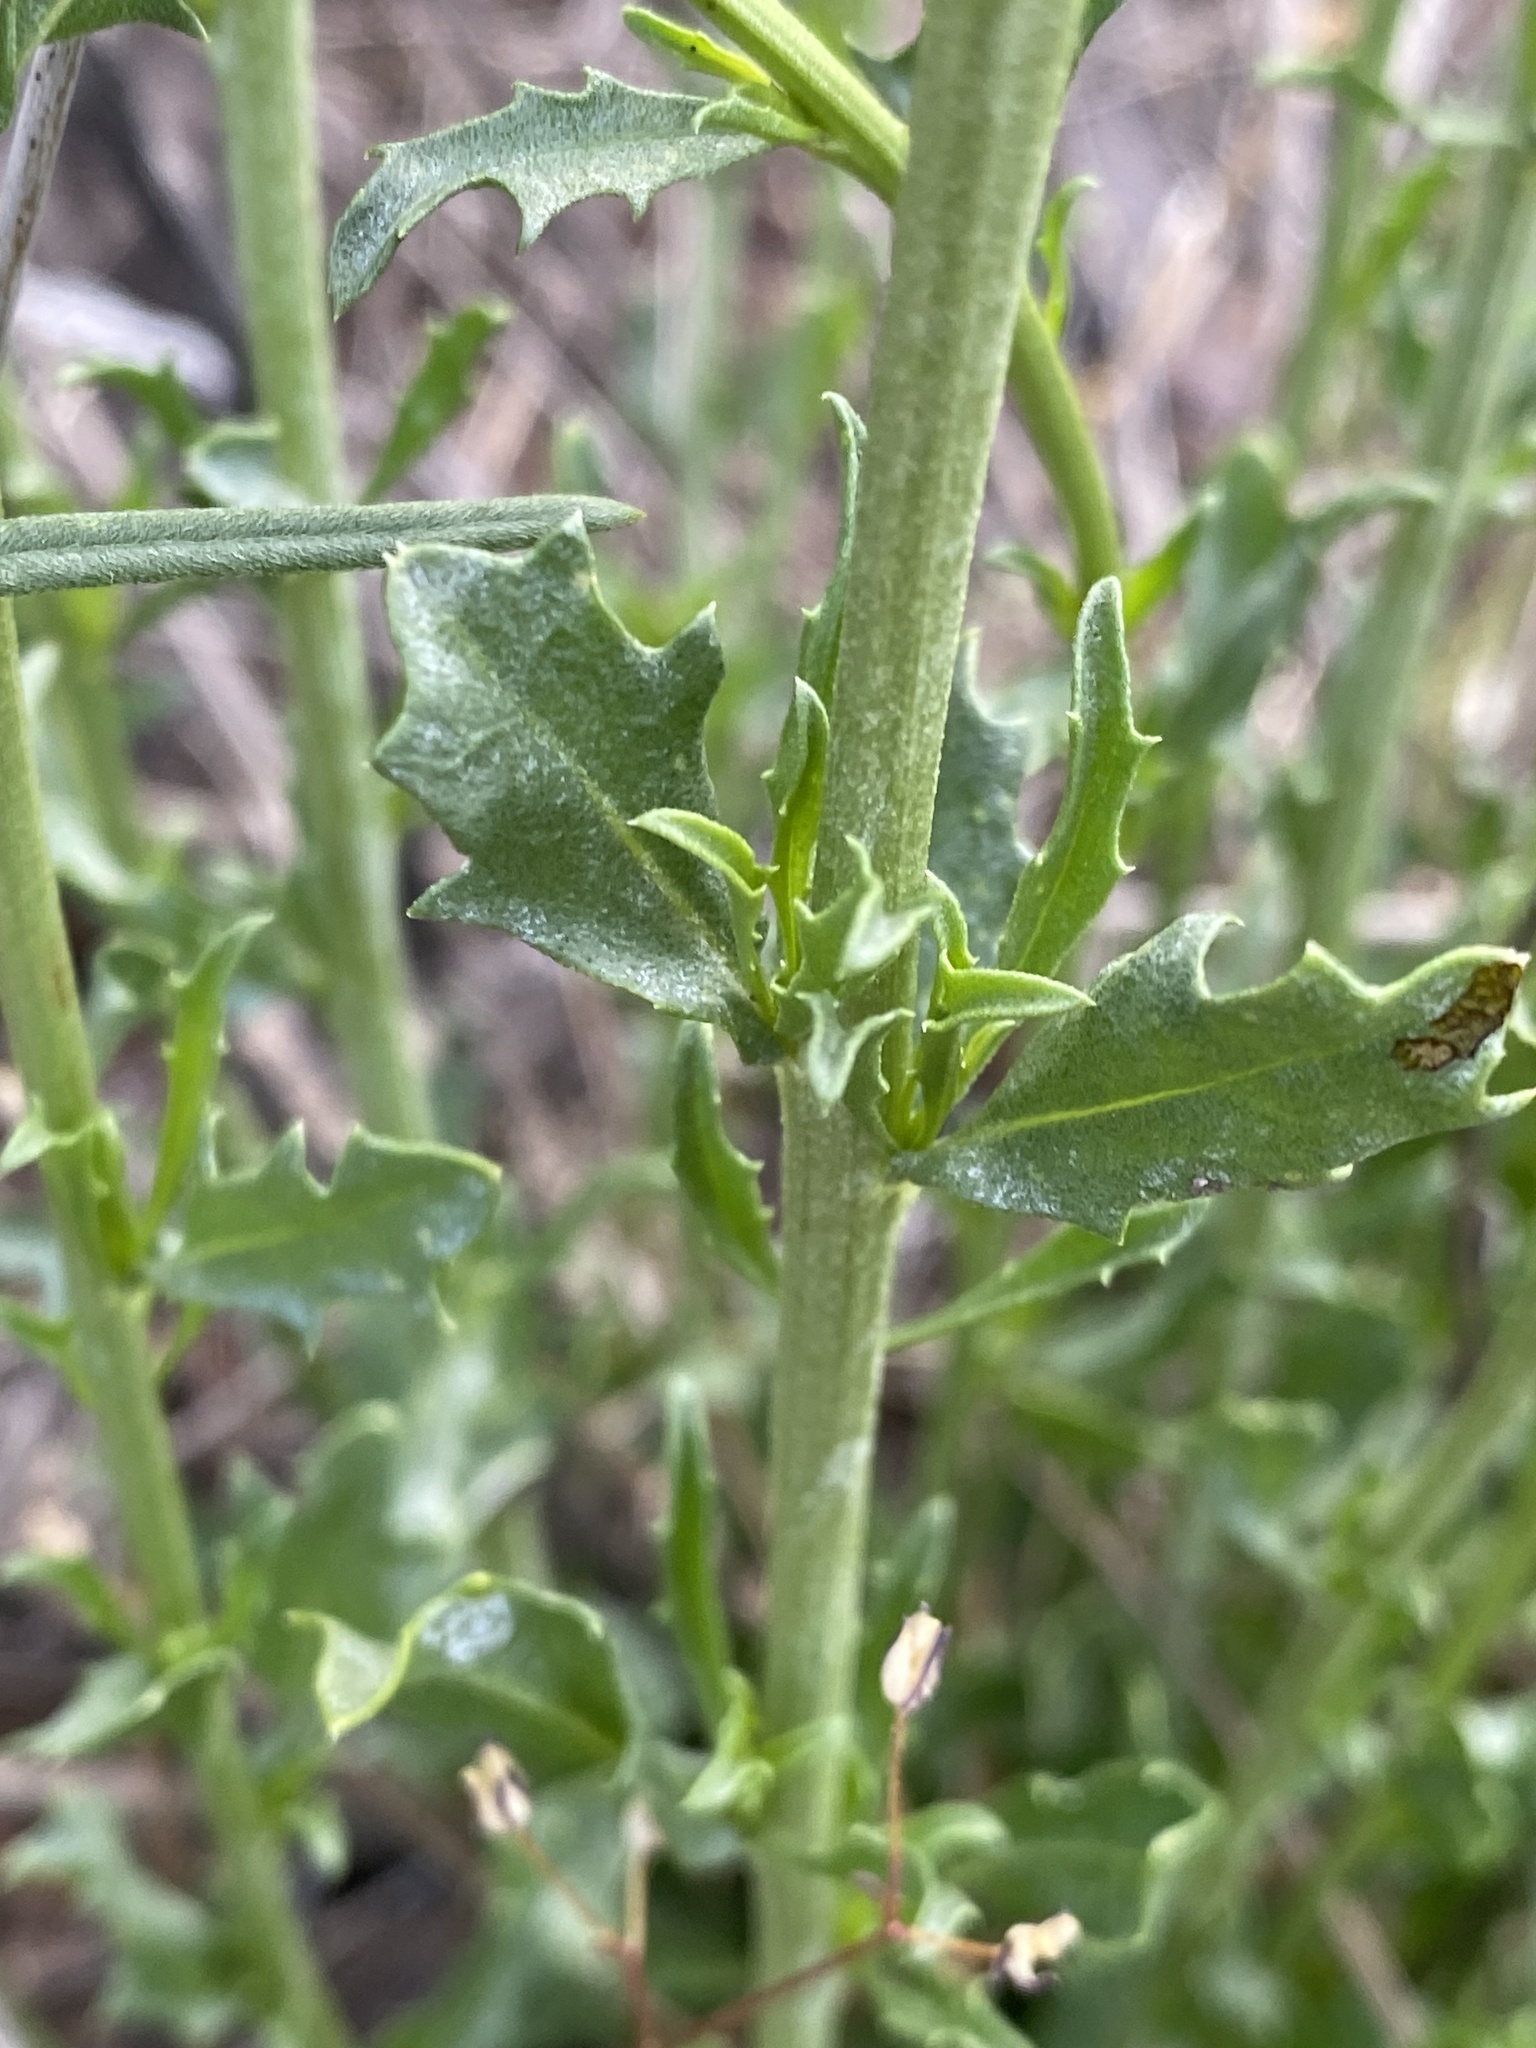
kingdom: Plantae
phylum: Tracheophyta
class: Magnoliopsida
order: Asterales
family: Asteraceae
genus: Baccharis
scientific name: Baccharis pteronioides
